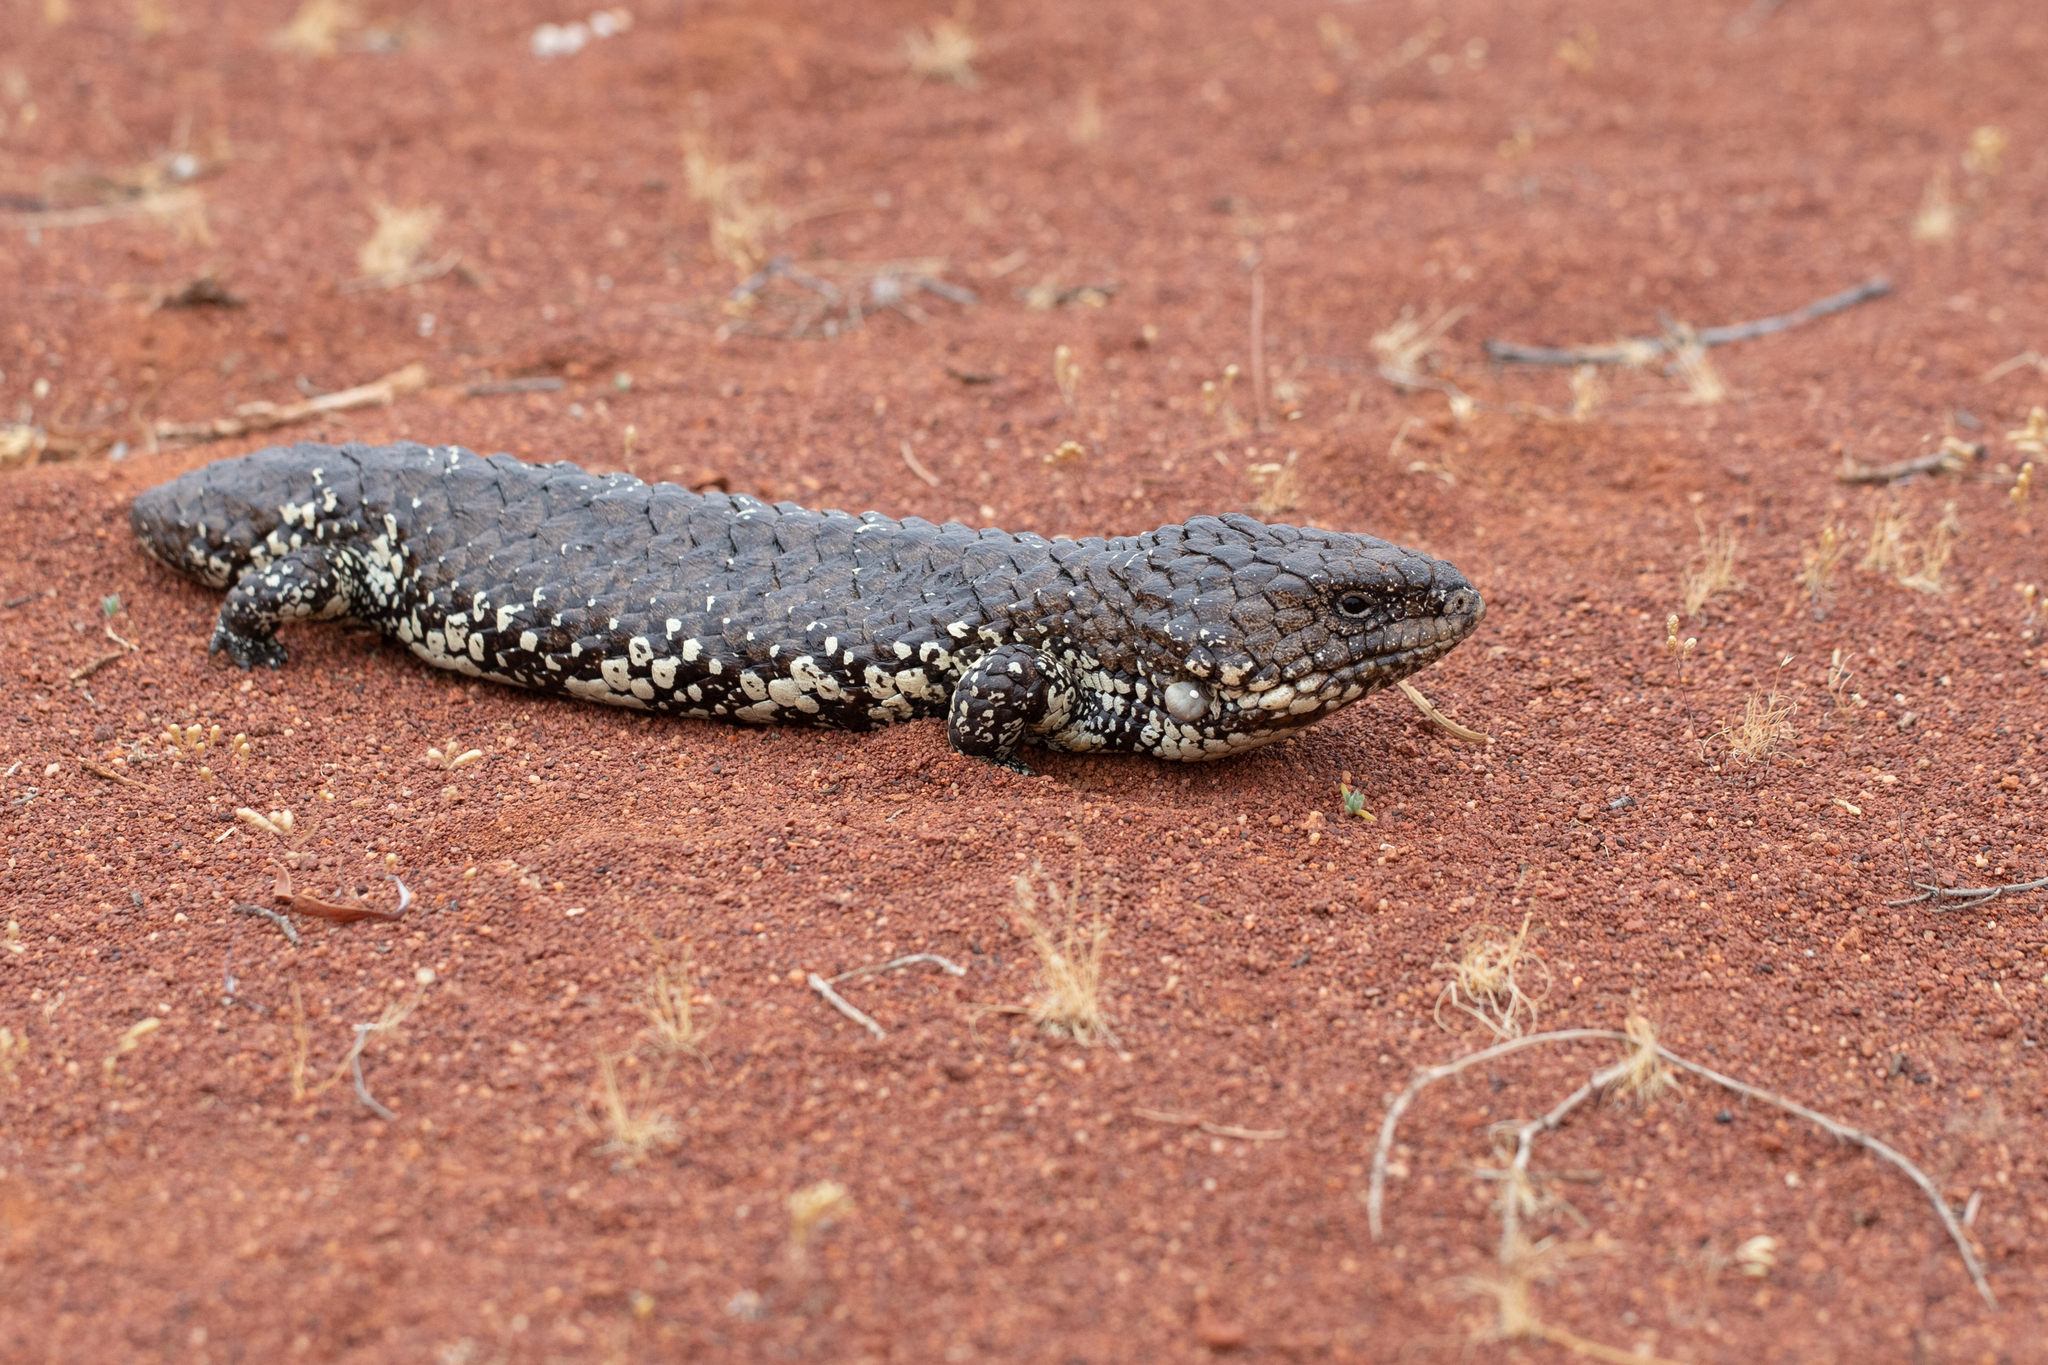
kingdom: Animalia
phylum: Chordata
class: Squamata
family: Scincidae
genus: Tiliqua
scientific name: Tiliqua rugosa
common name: Pinecone lizard
